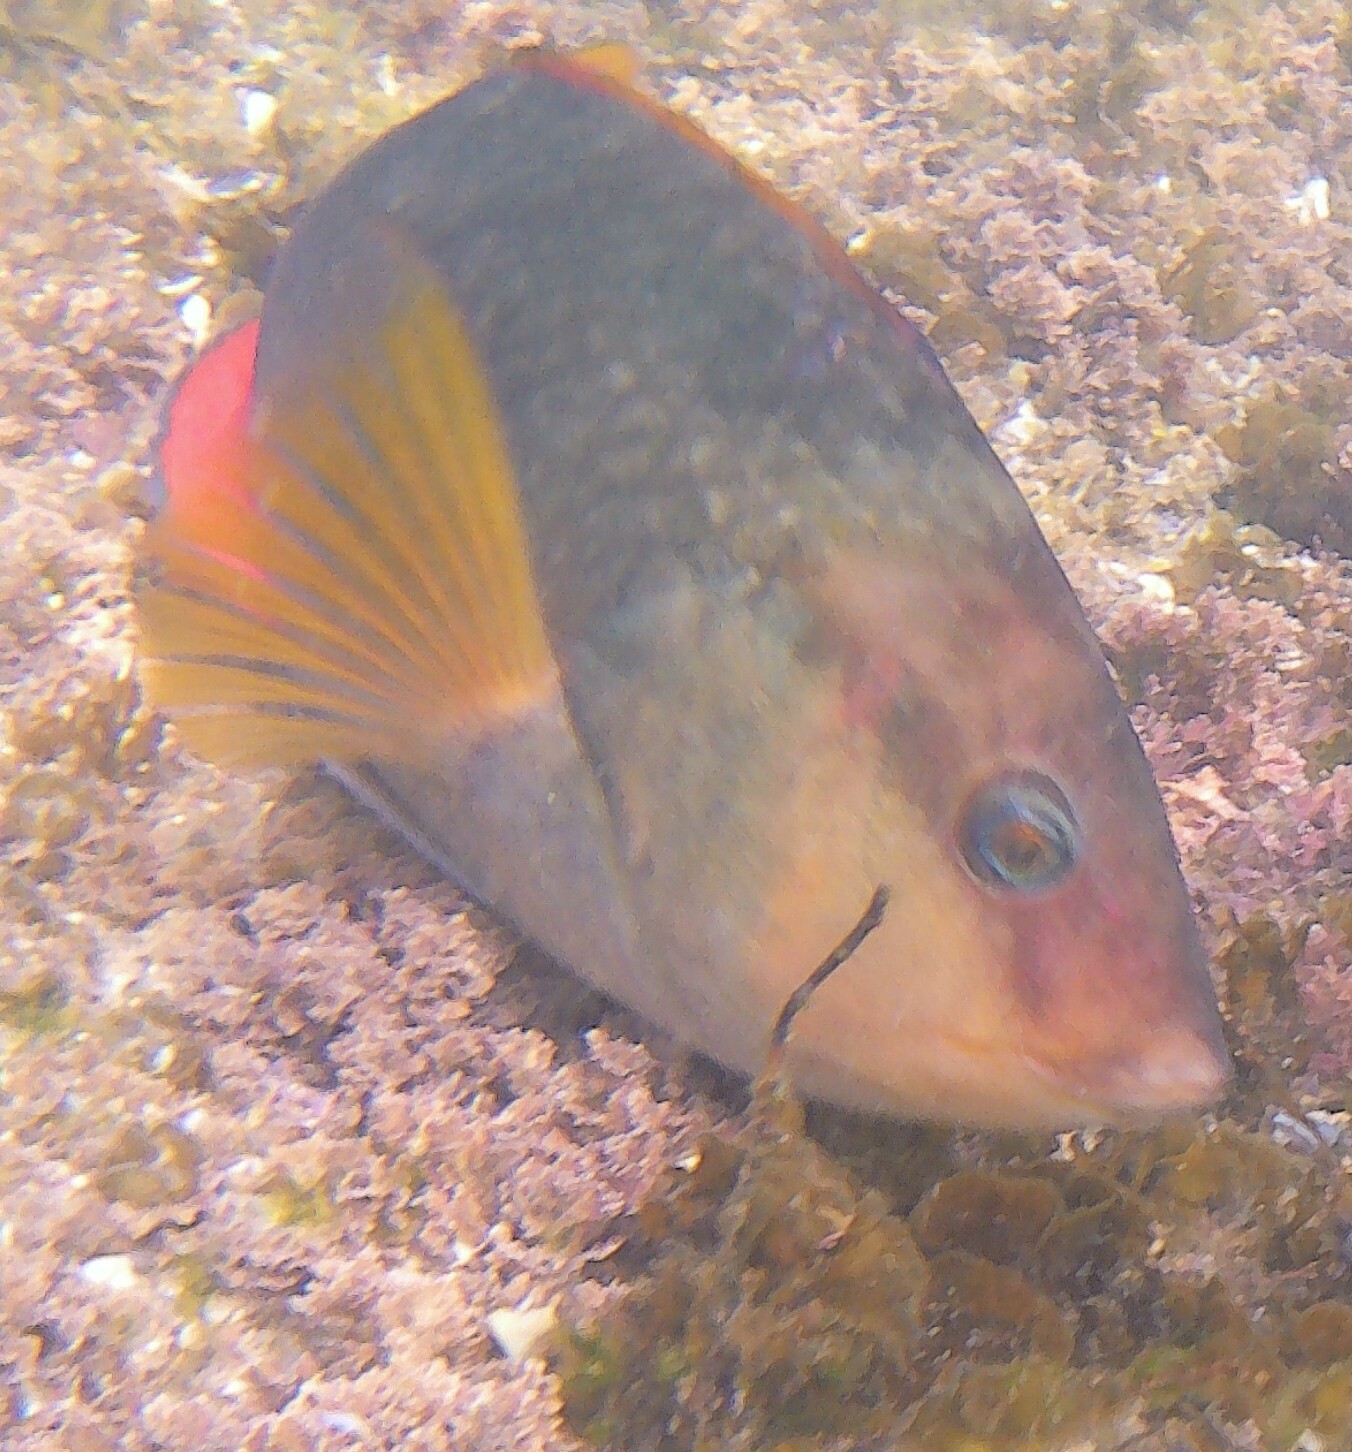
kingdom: Animalia
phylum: Chordata
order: Perciformes
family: Labridae
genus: Notolabrus
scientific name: Notolabrus gymnogenis
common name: Crimson banded wrasse
